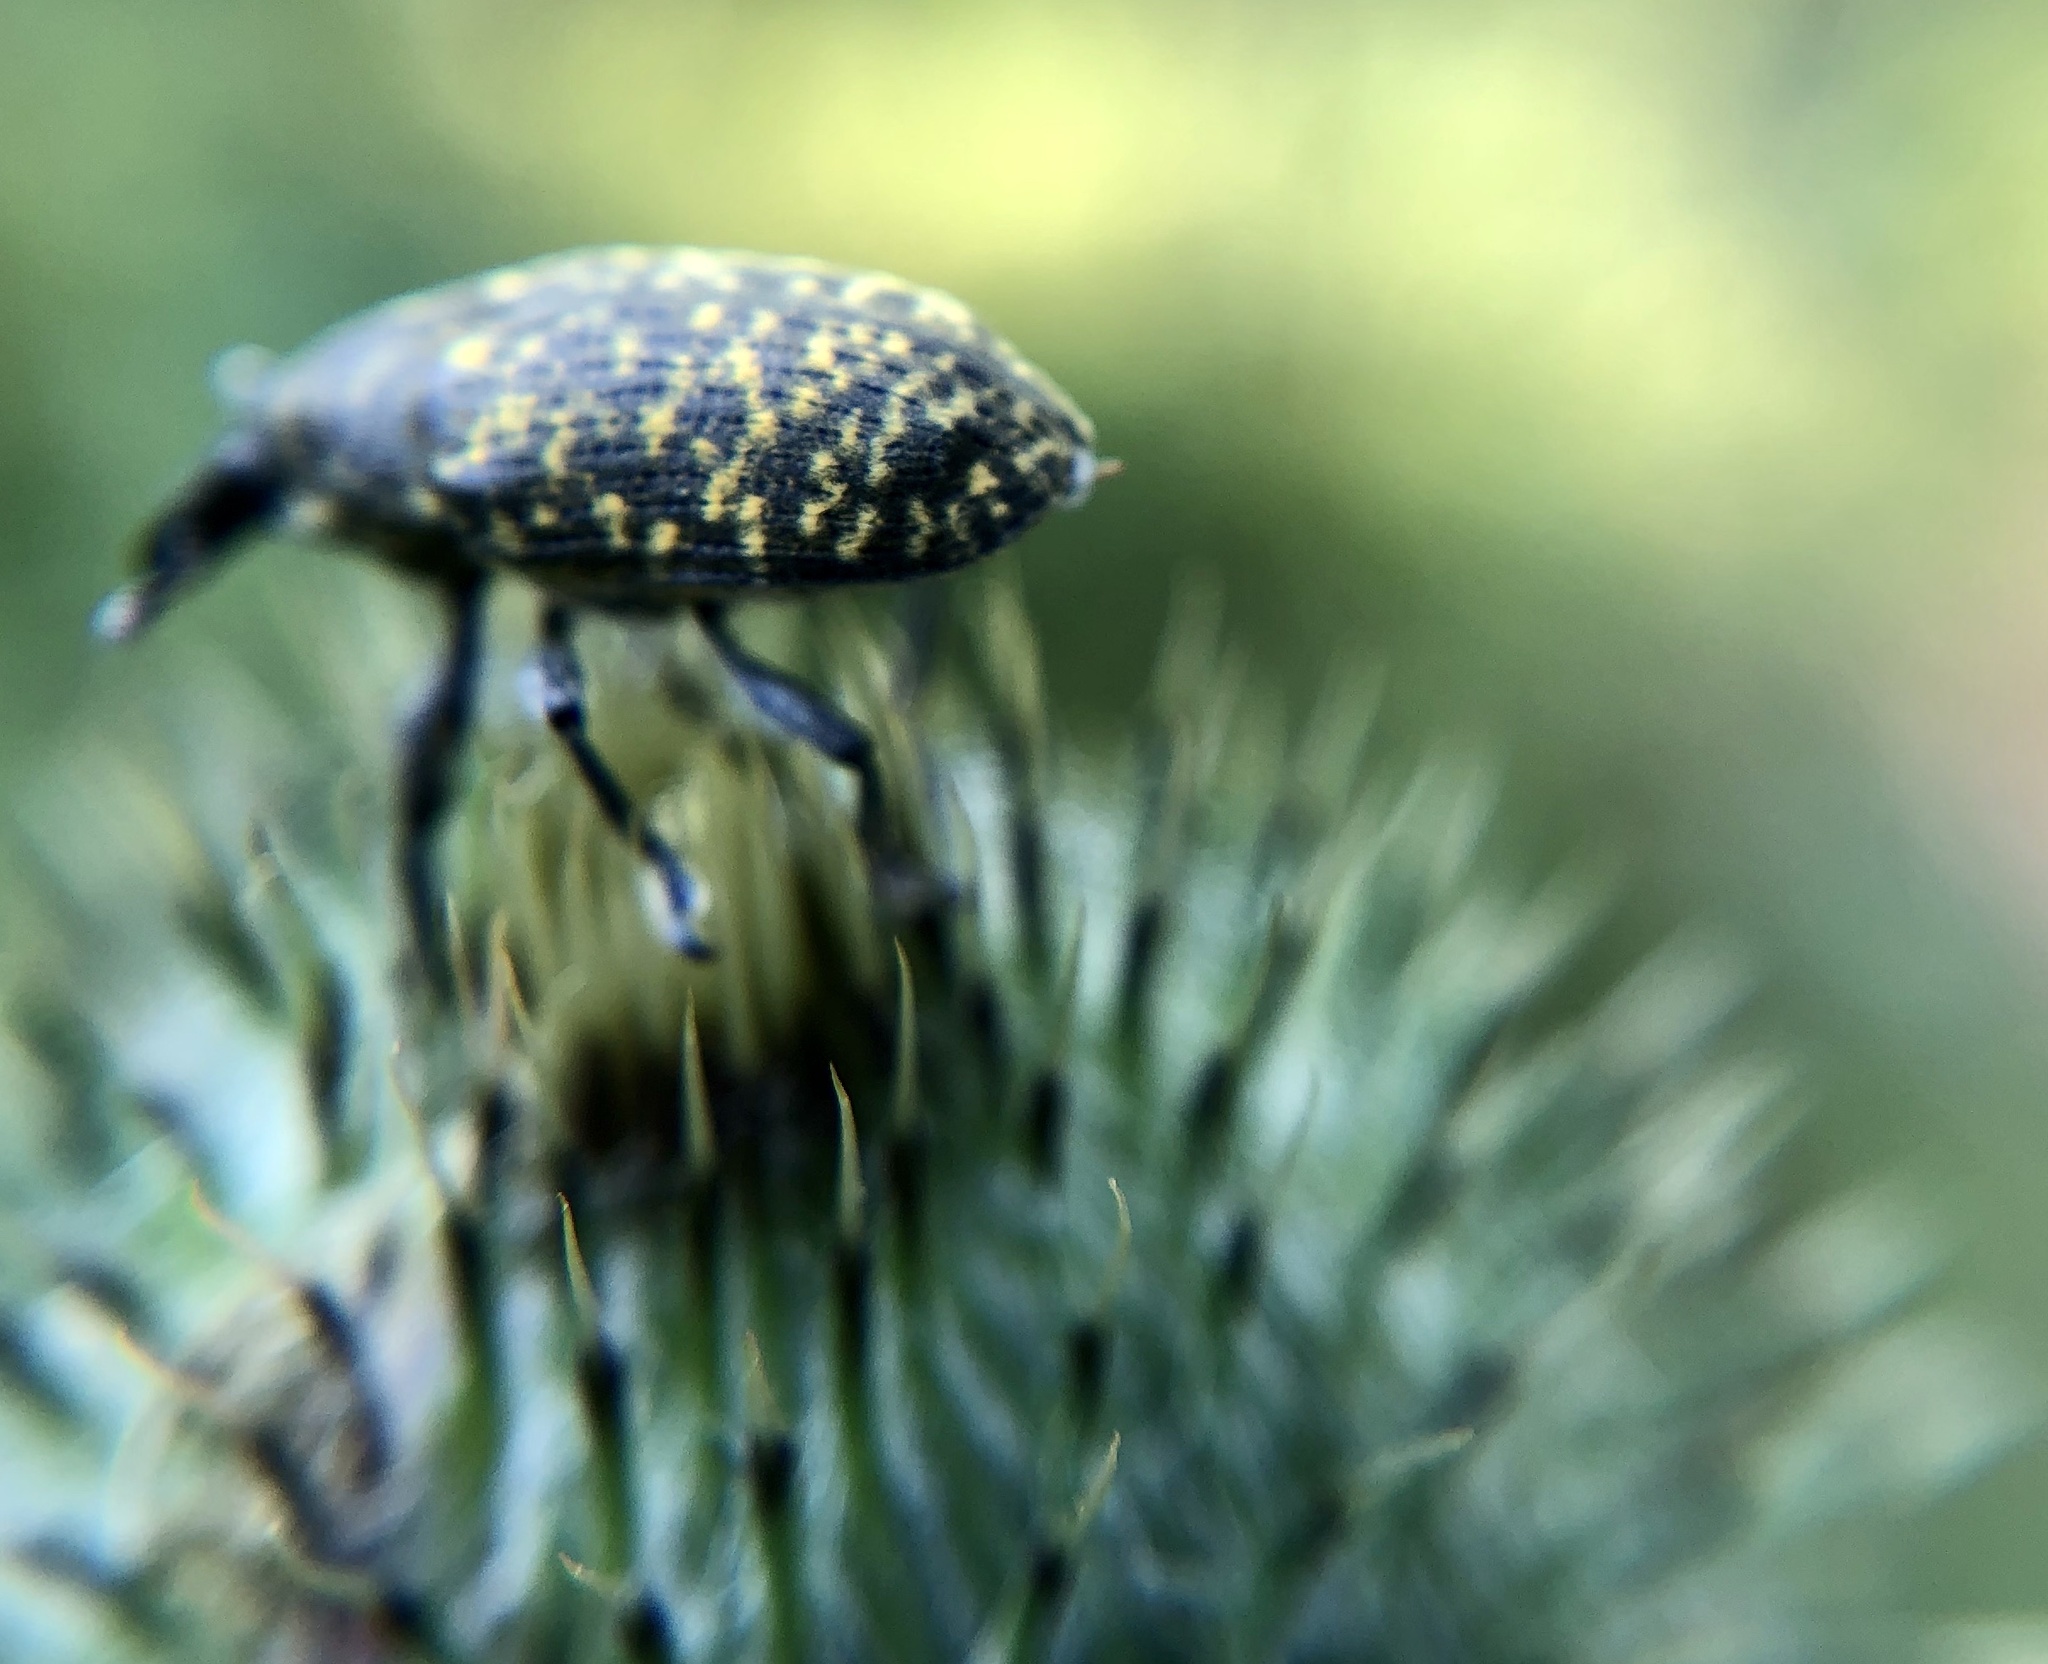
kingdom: Animalia
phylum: Arthropoda
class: Insecta
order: Coleoptera
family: Curculionidae
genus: Larinus
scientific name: Larinus turbinatus
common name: Weevil
